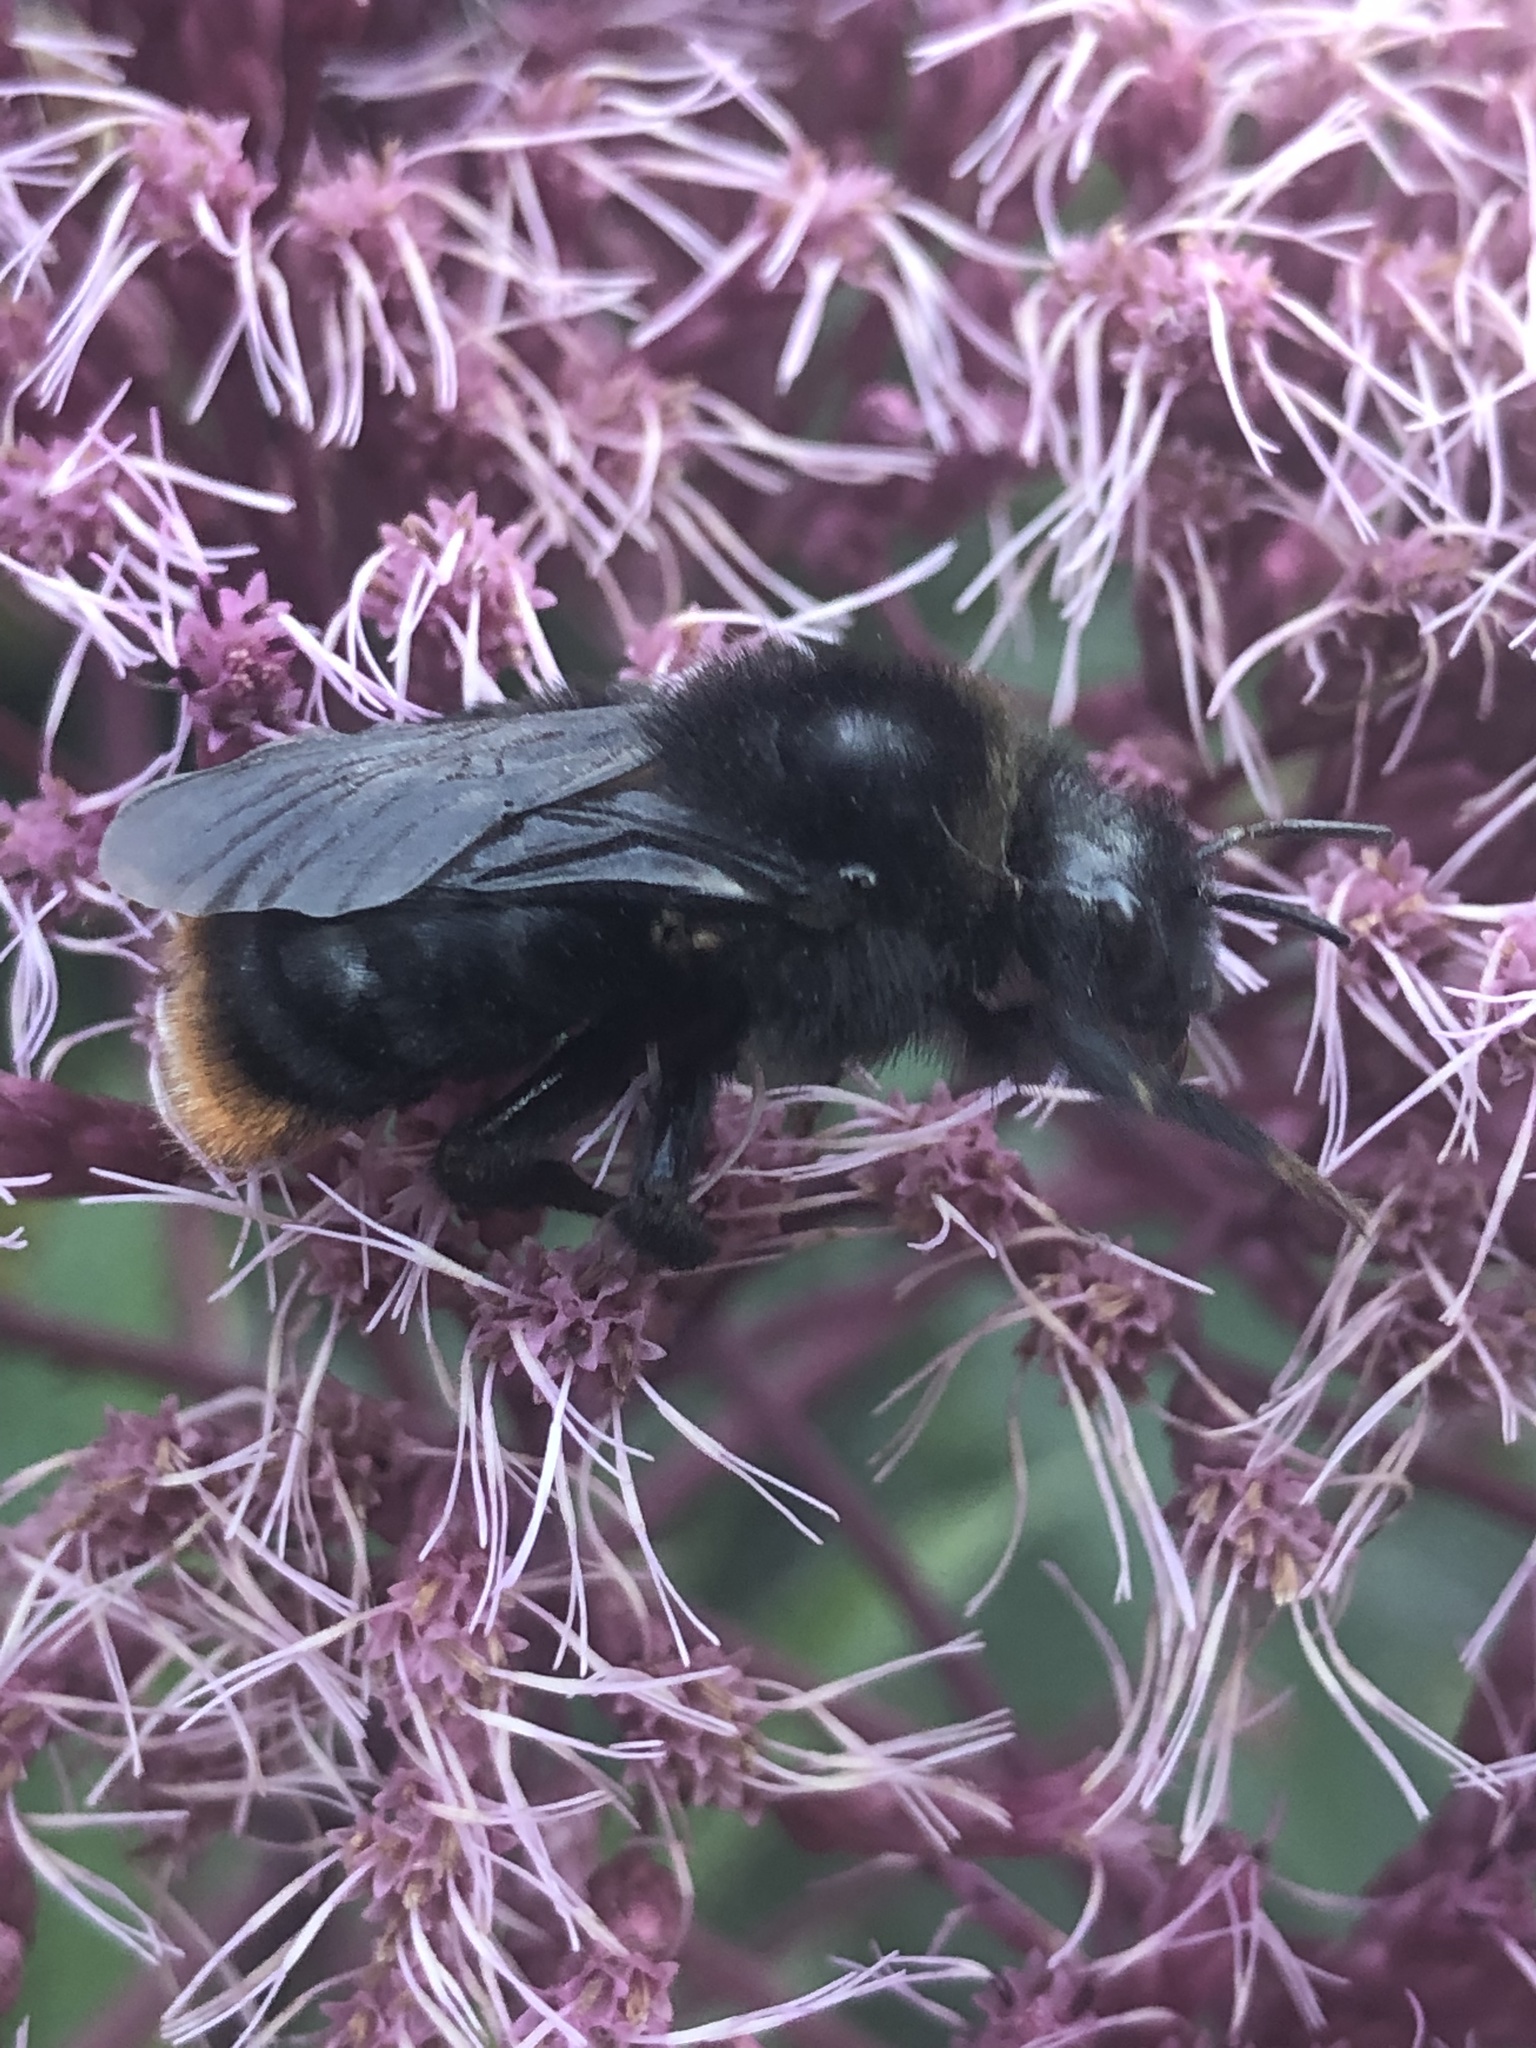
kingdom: Animalia
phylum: Arthropoda
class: Insecta
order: Hymenoptera
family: Apidae
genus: Bombus
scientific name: Bombus rupestris
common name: Hill cuckoo-bee
